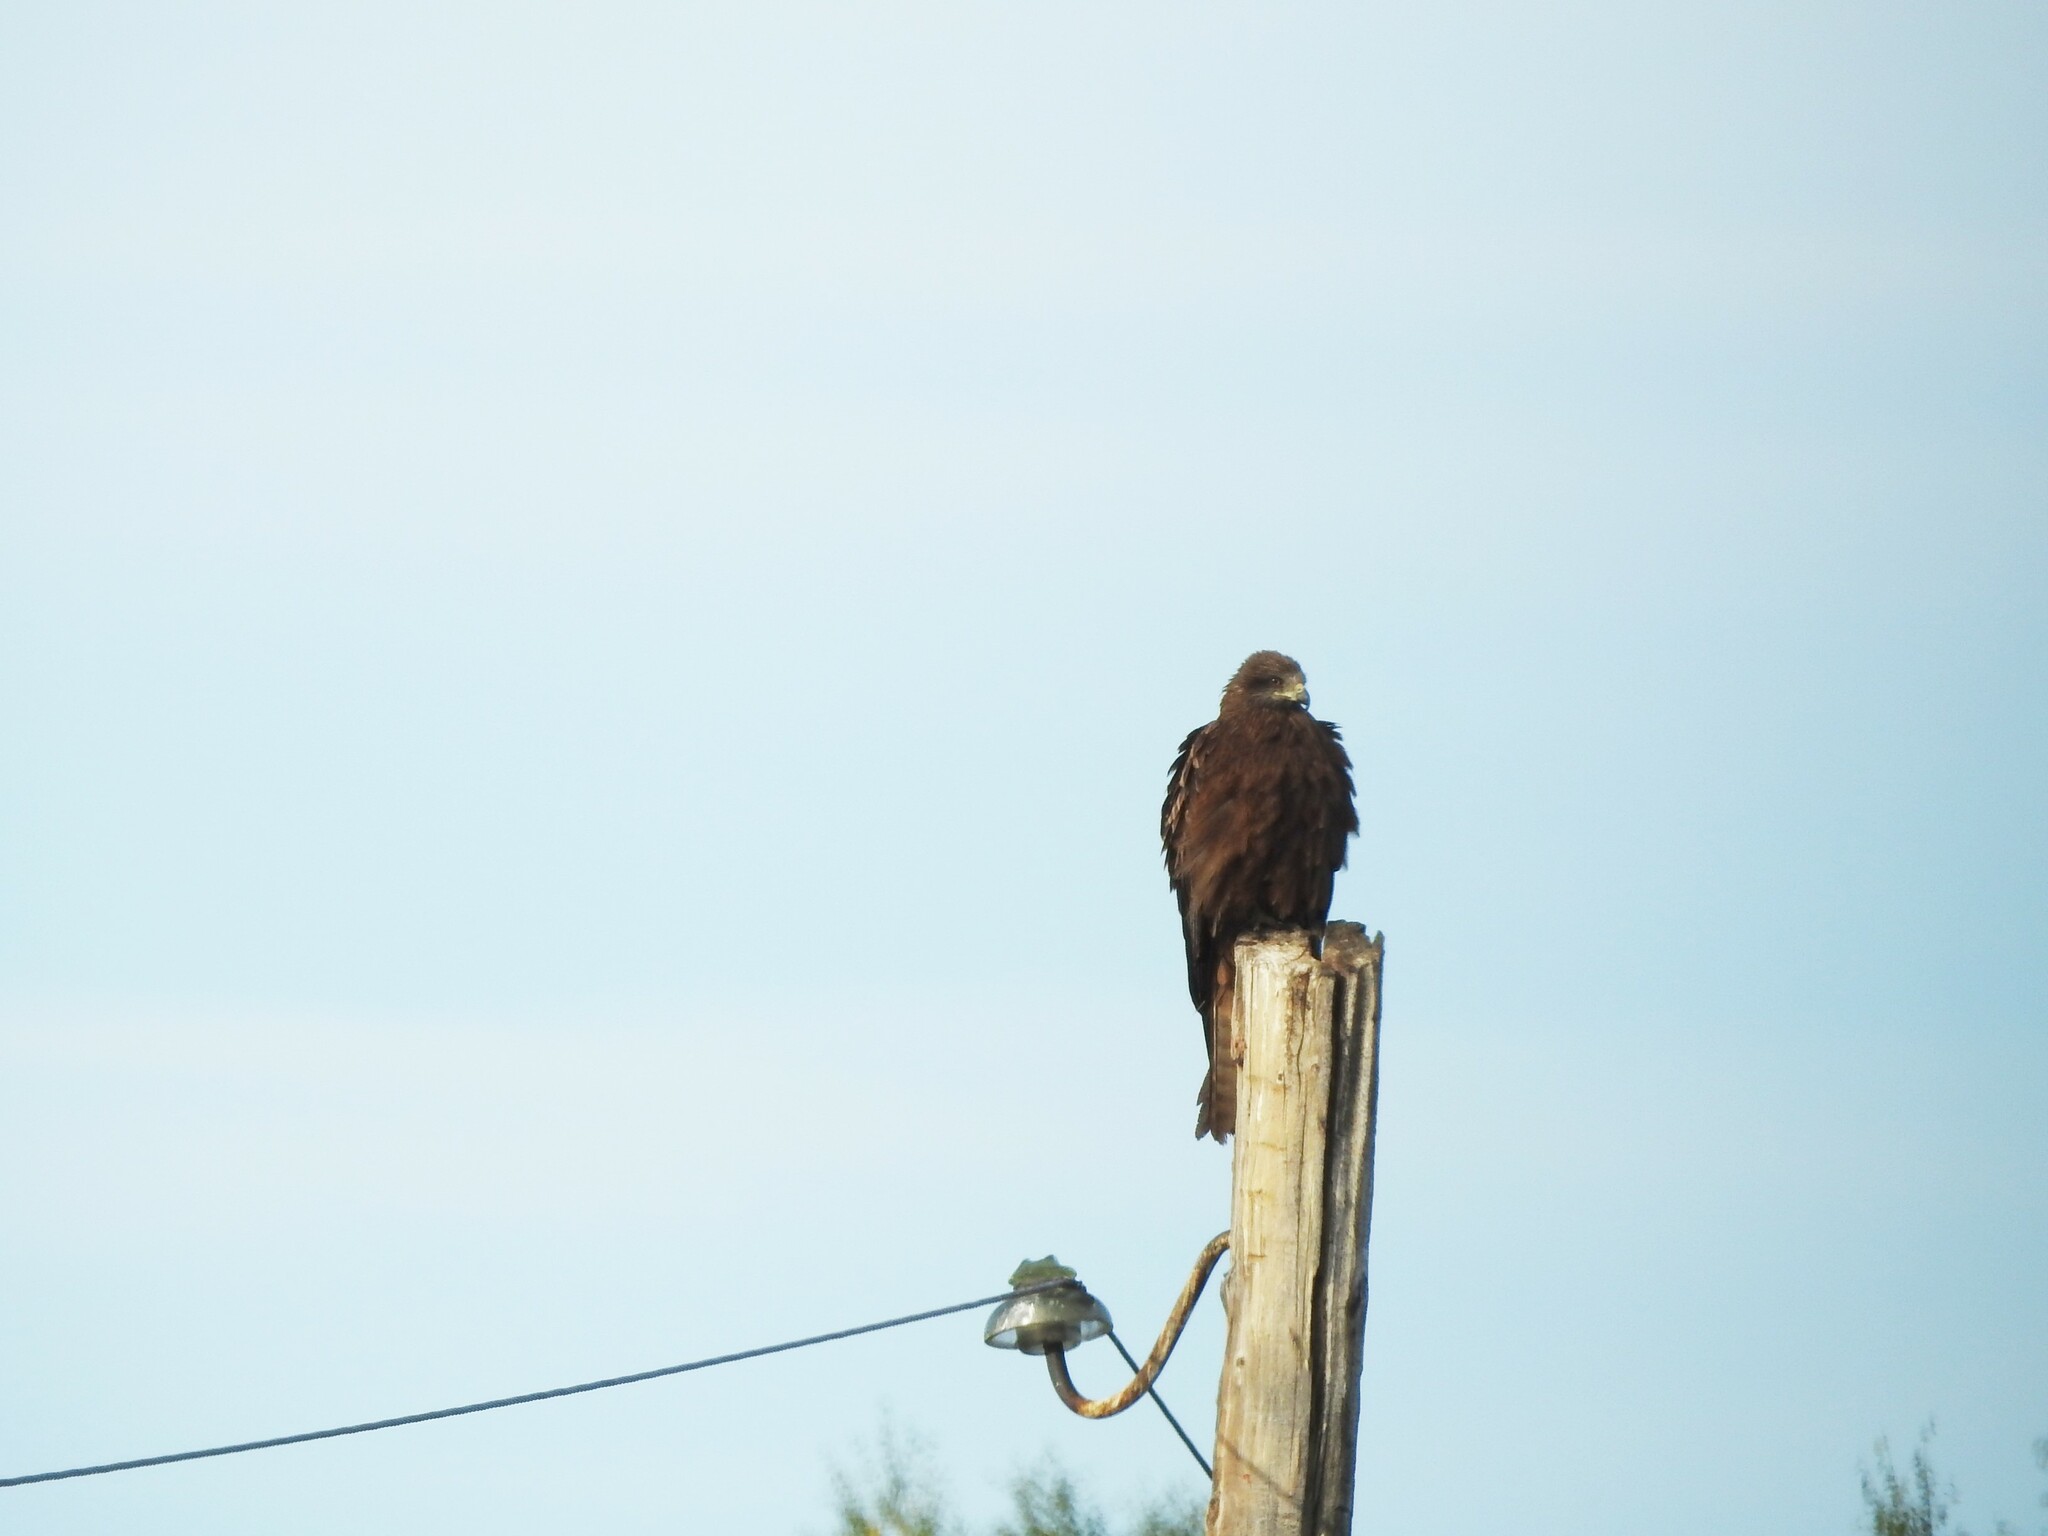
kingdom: Animalia
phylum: Chordata
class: Aves
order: Accipitriformes
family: Accipitridae
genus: Milvus
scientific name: Milvus migrans
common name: Black kite
